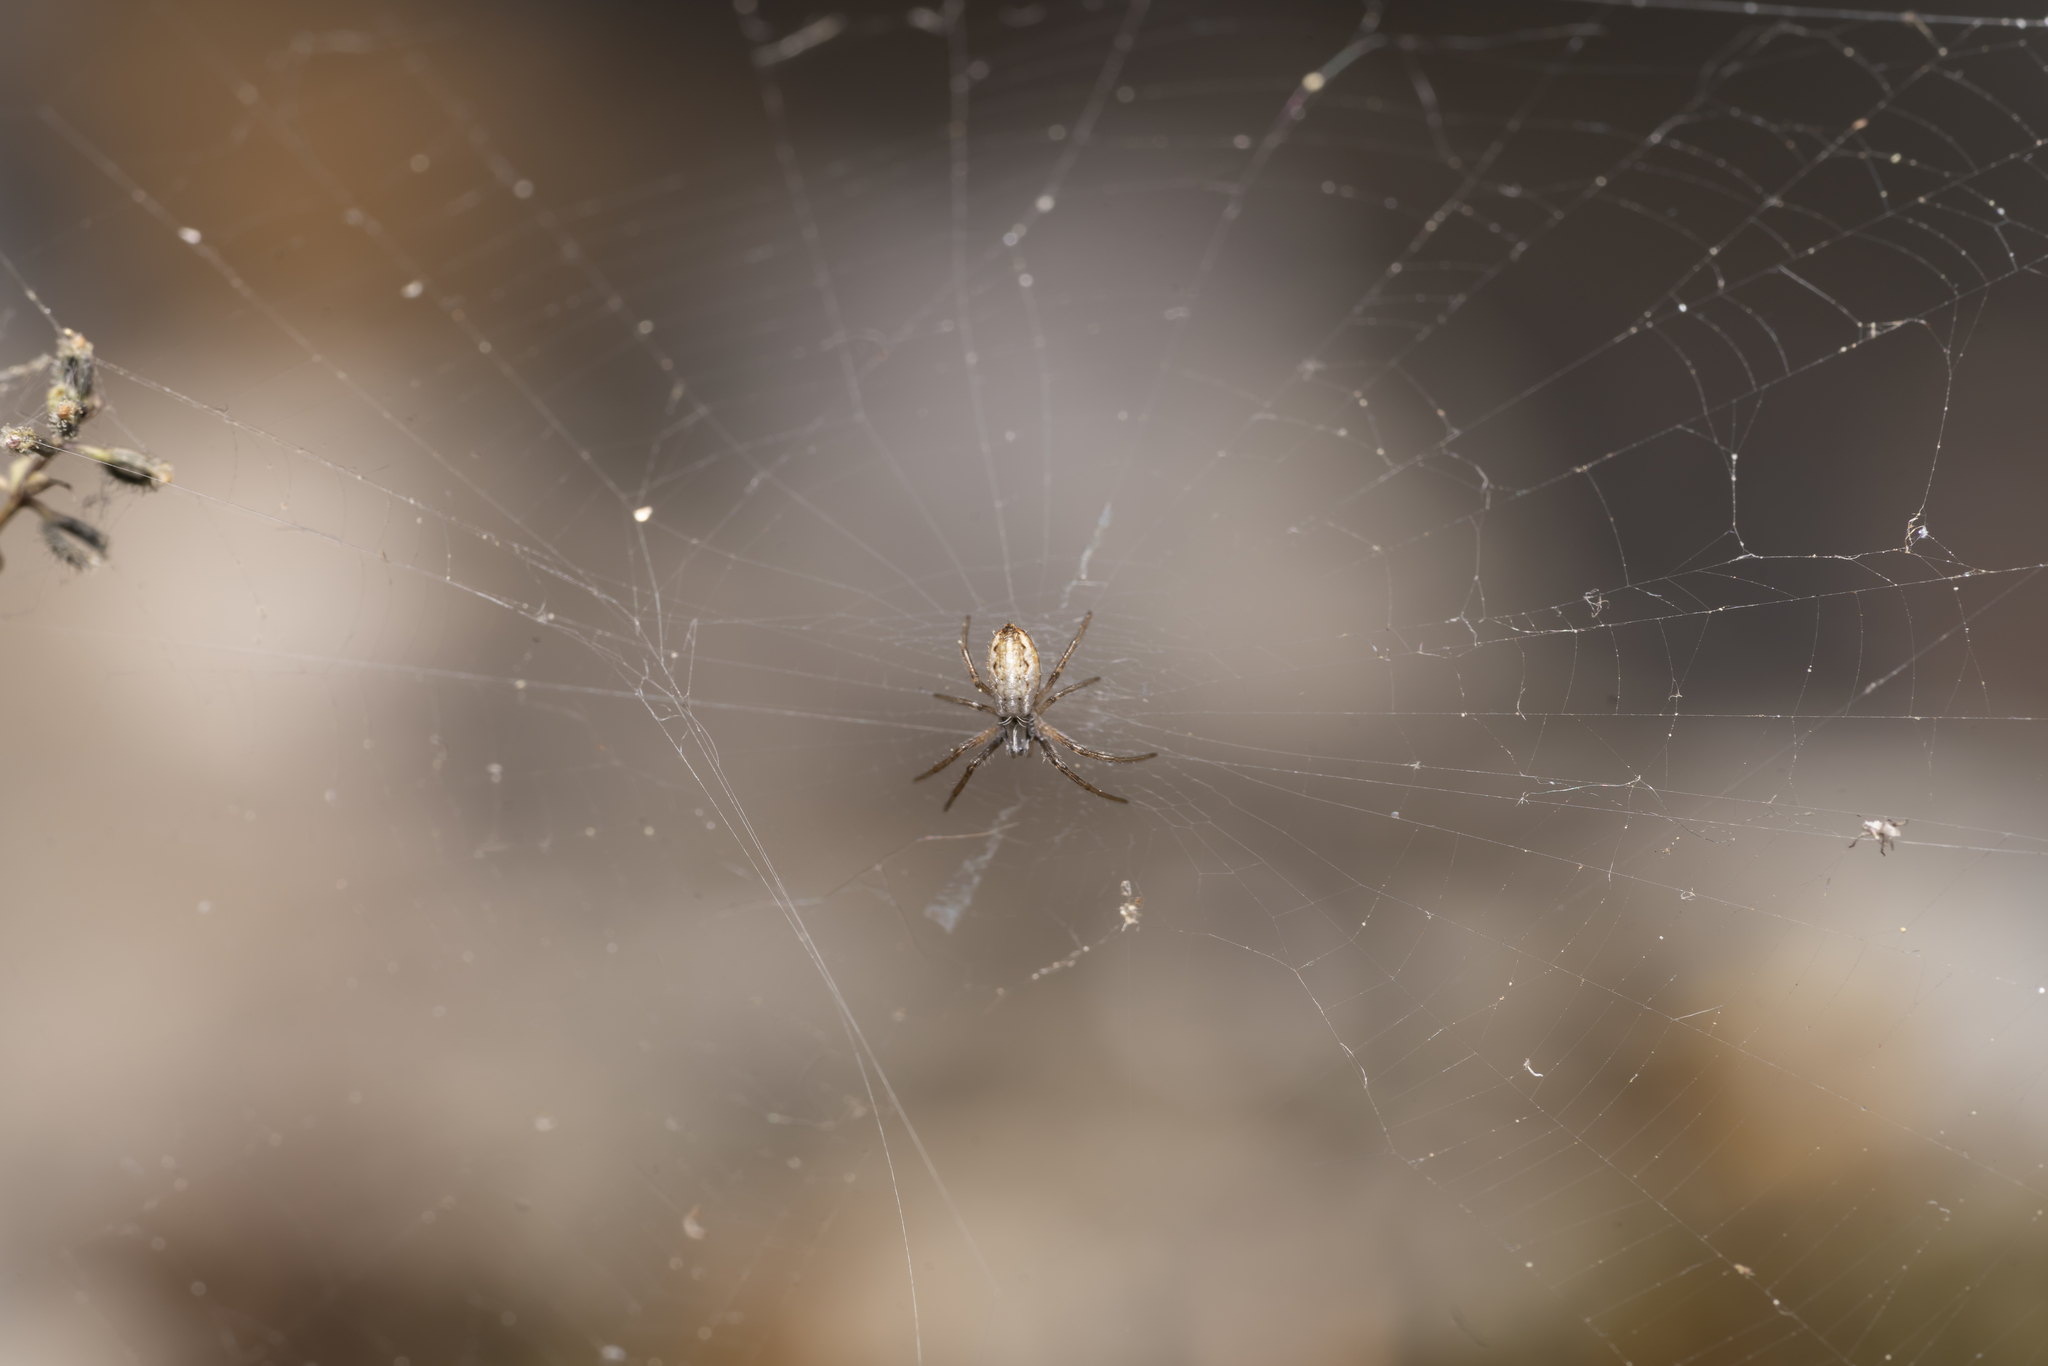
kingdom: Animalia
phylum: Arthropoda
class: Arachnida
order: Araneae
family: Araneidae
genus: Argiope
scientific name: Argiope lobata
